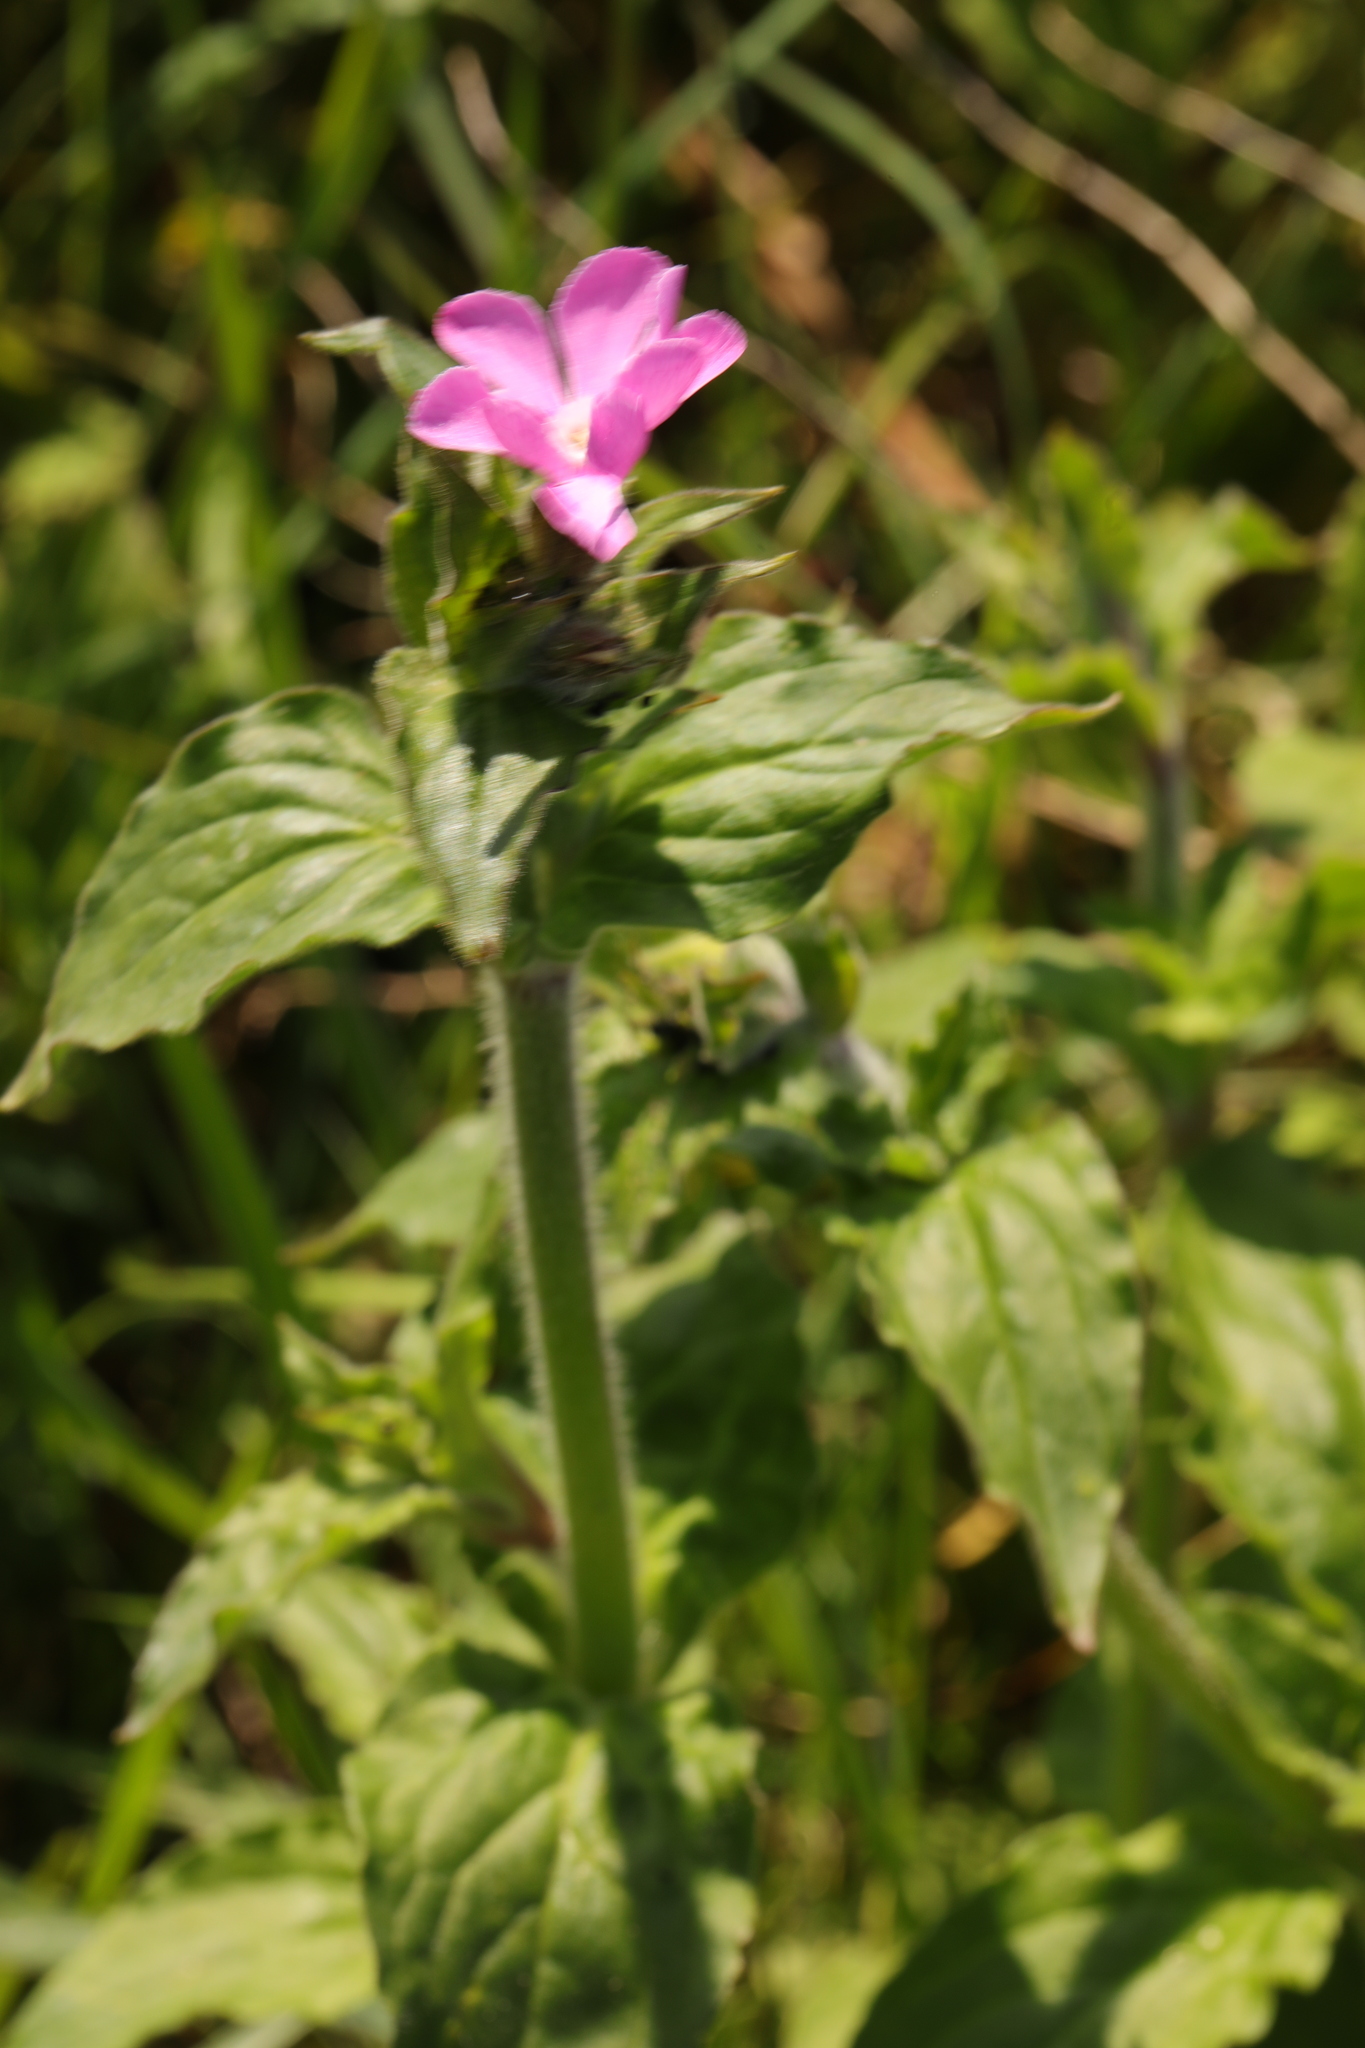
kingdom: Plantae
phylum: Tracheophyta
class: Magnoliopsida
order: Caryophyllales
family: Caryophyllaceae
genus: Silene
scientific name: Silene dioica
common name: Red campion
